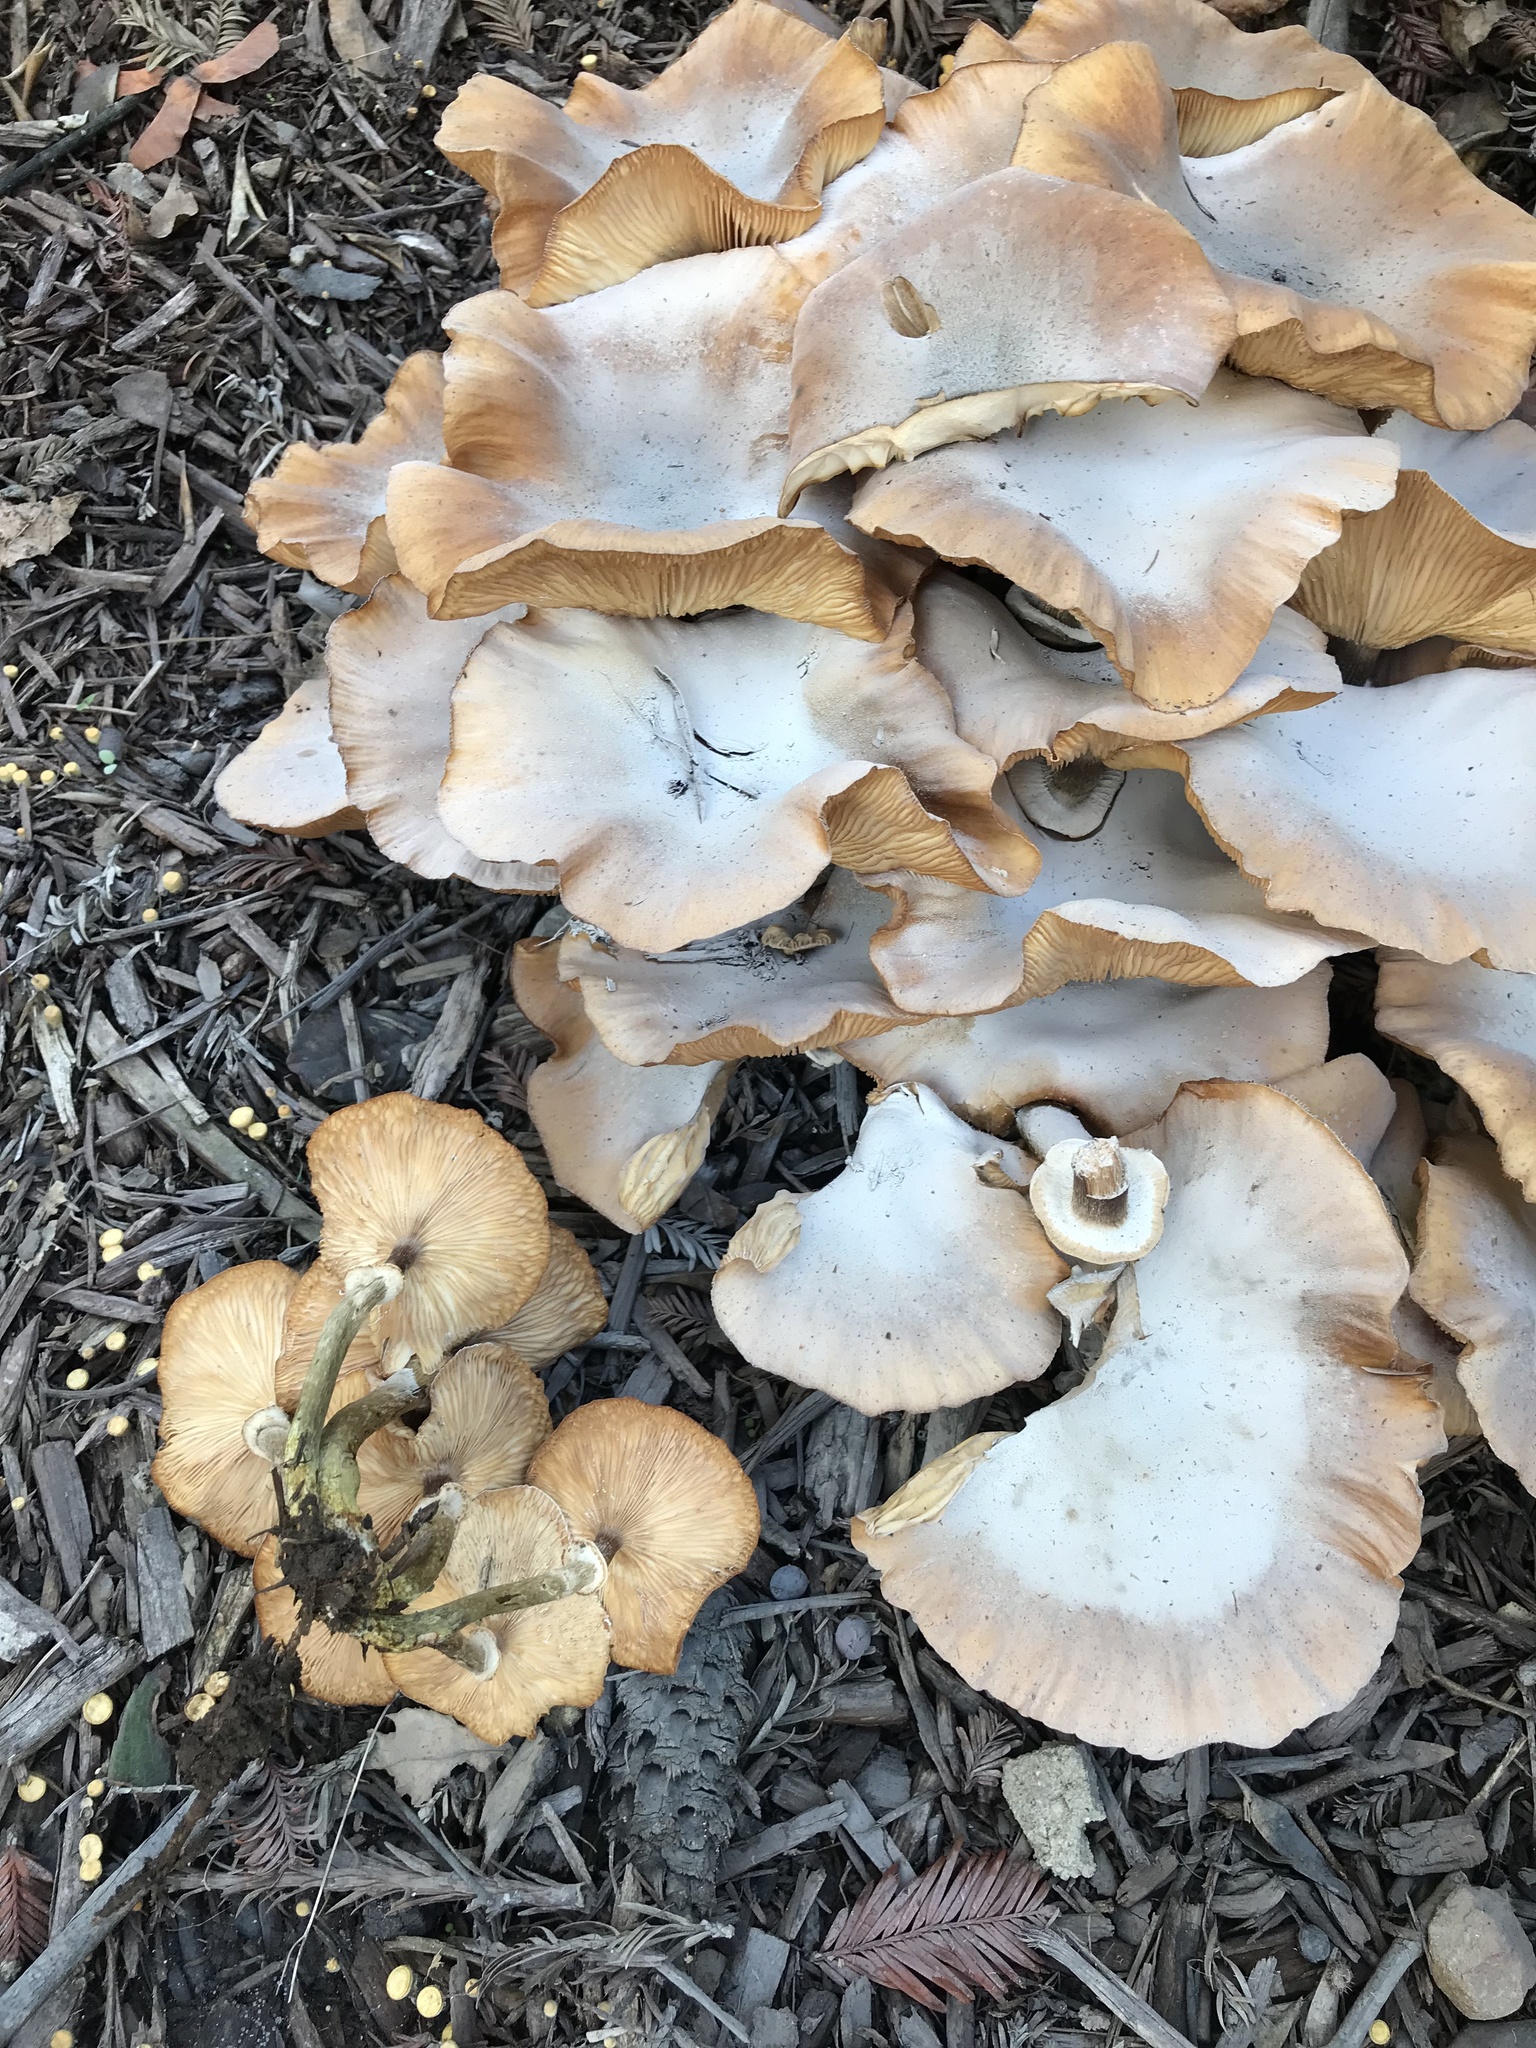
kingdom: Fungi
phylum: Basidiomycota
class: Agaricomycetes
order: Agaricales
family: Physalacriaceae
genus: Armillaria
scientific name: Armillaria mellea
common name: Honey fungus
